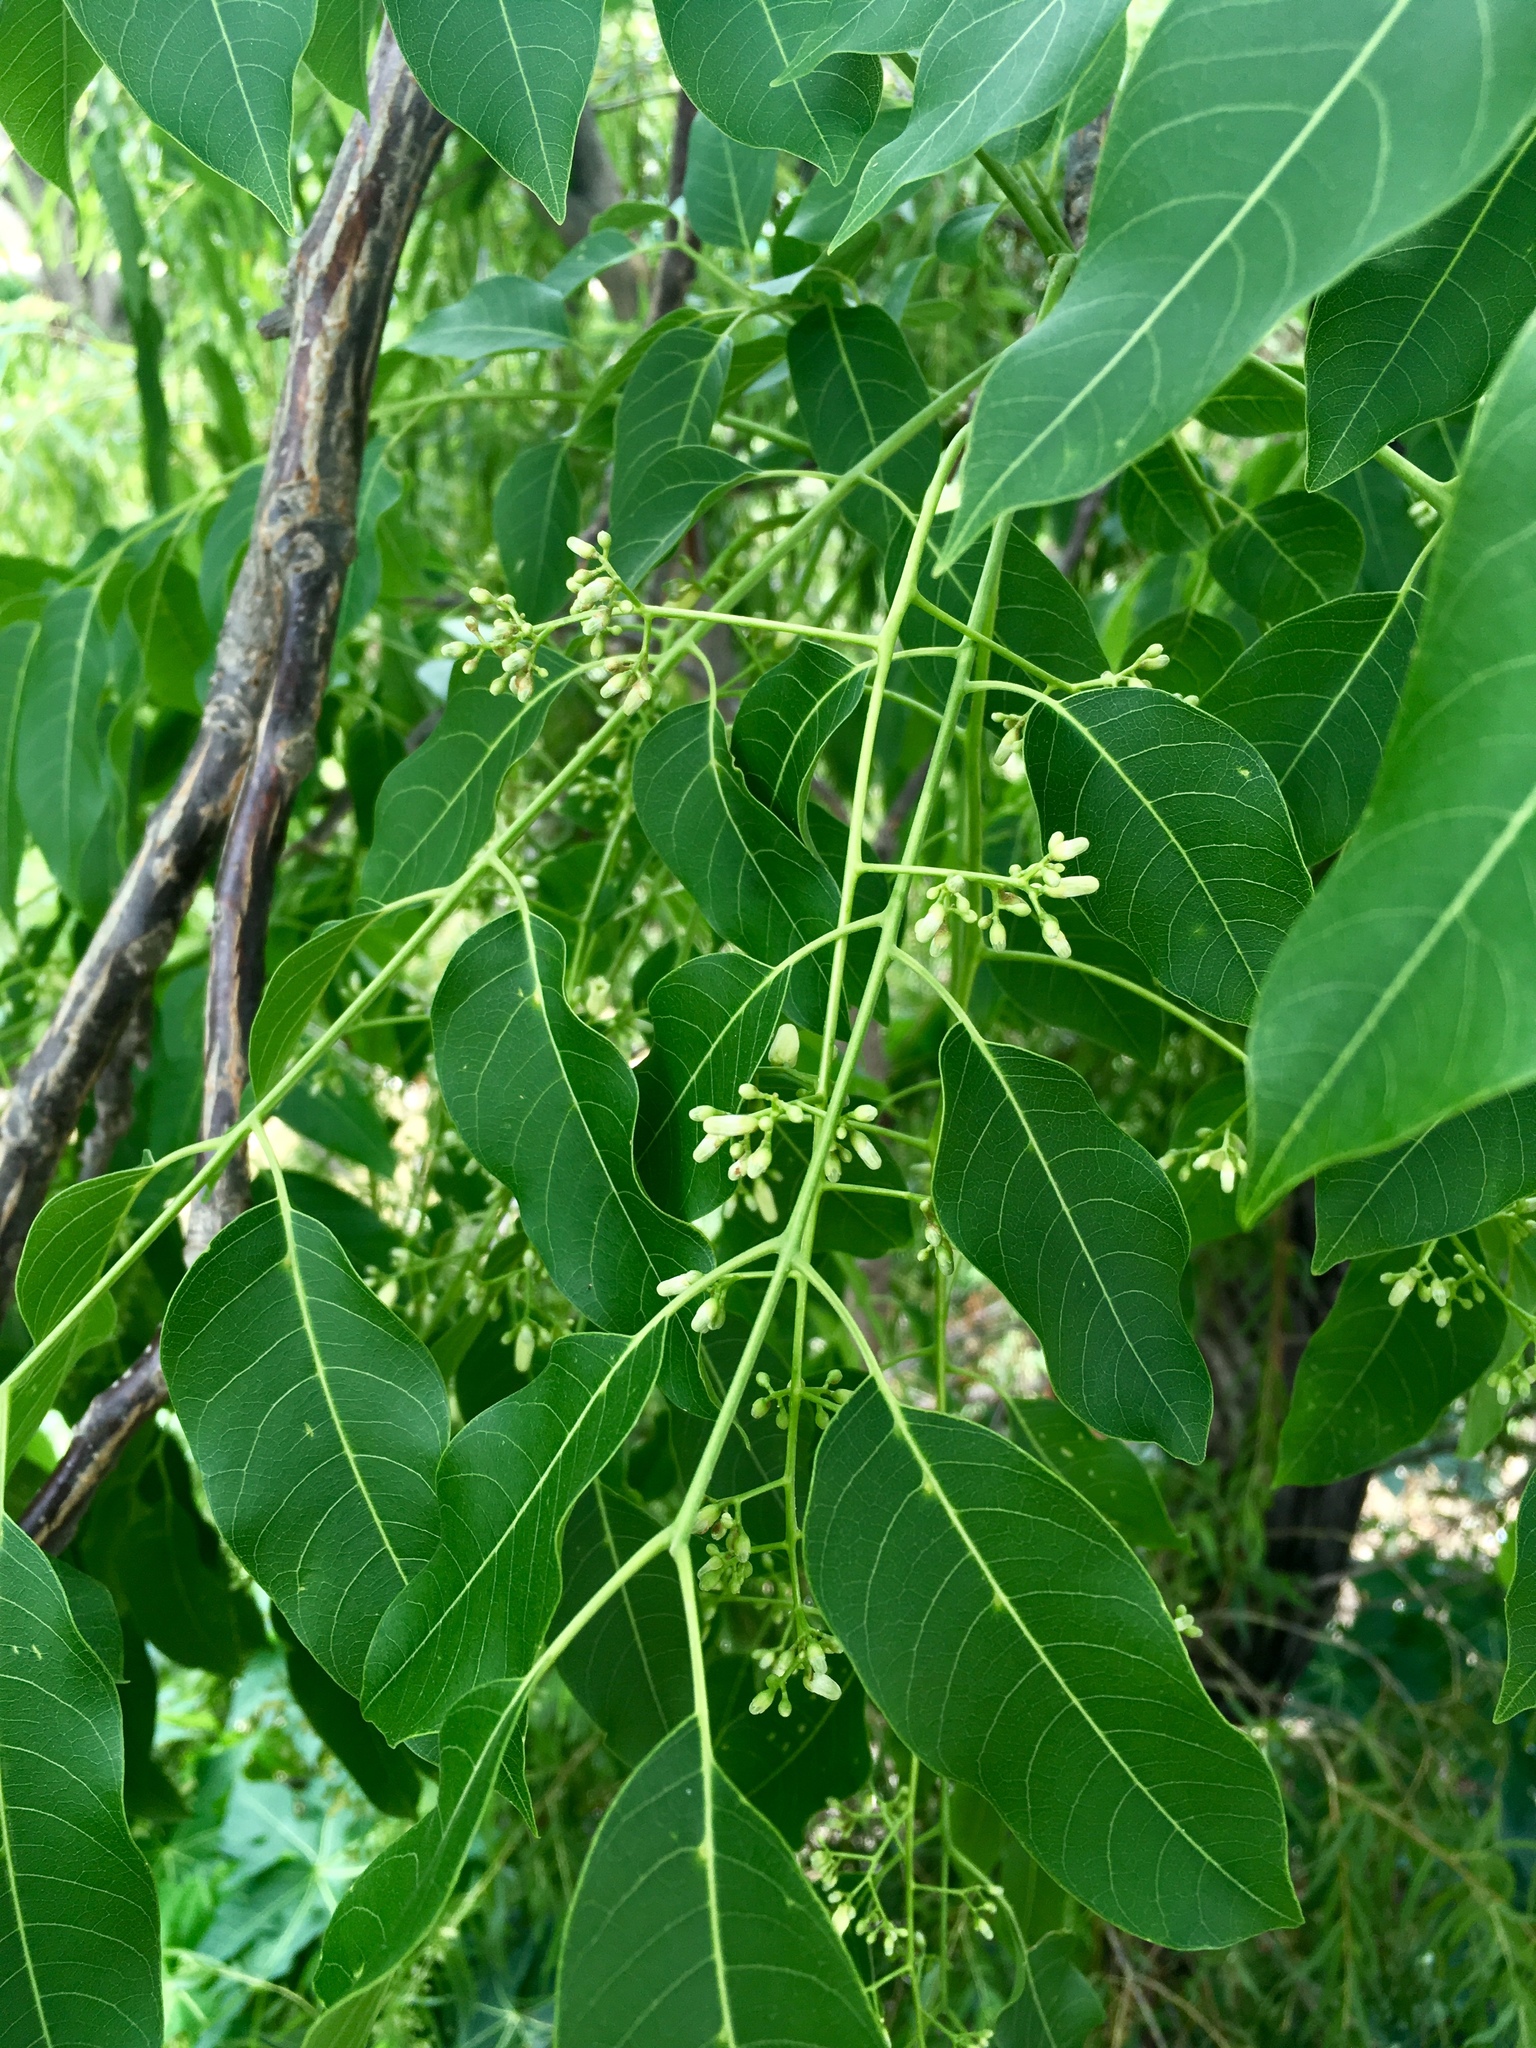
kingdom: Plantae
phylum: Tracheophyta
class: Magnoliopsida
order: Sapindales
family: Meliaceae
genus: Cedrela
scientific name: Cedrela odorata
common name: Red cedar
